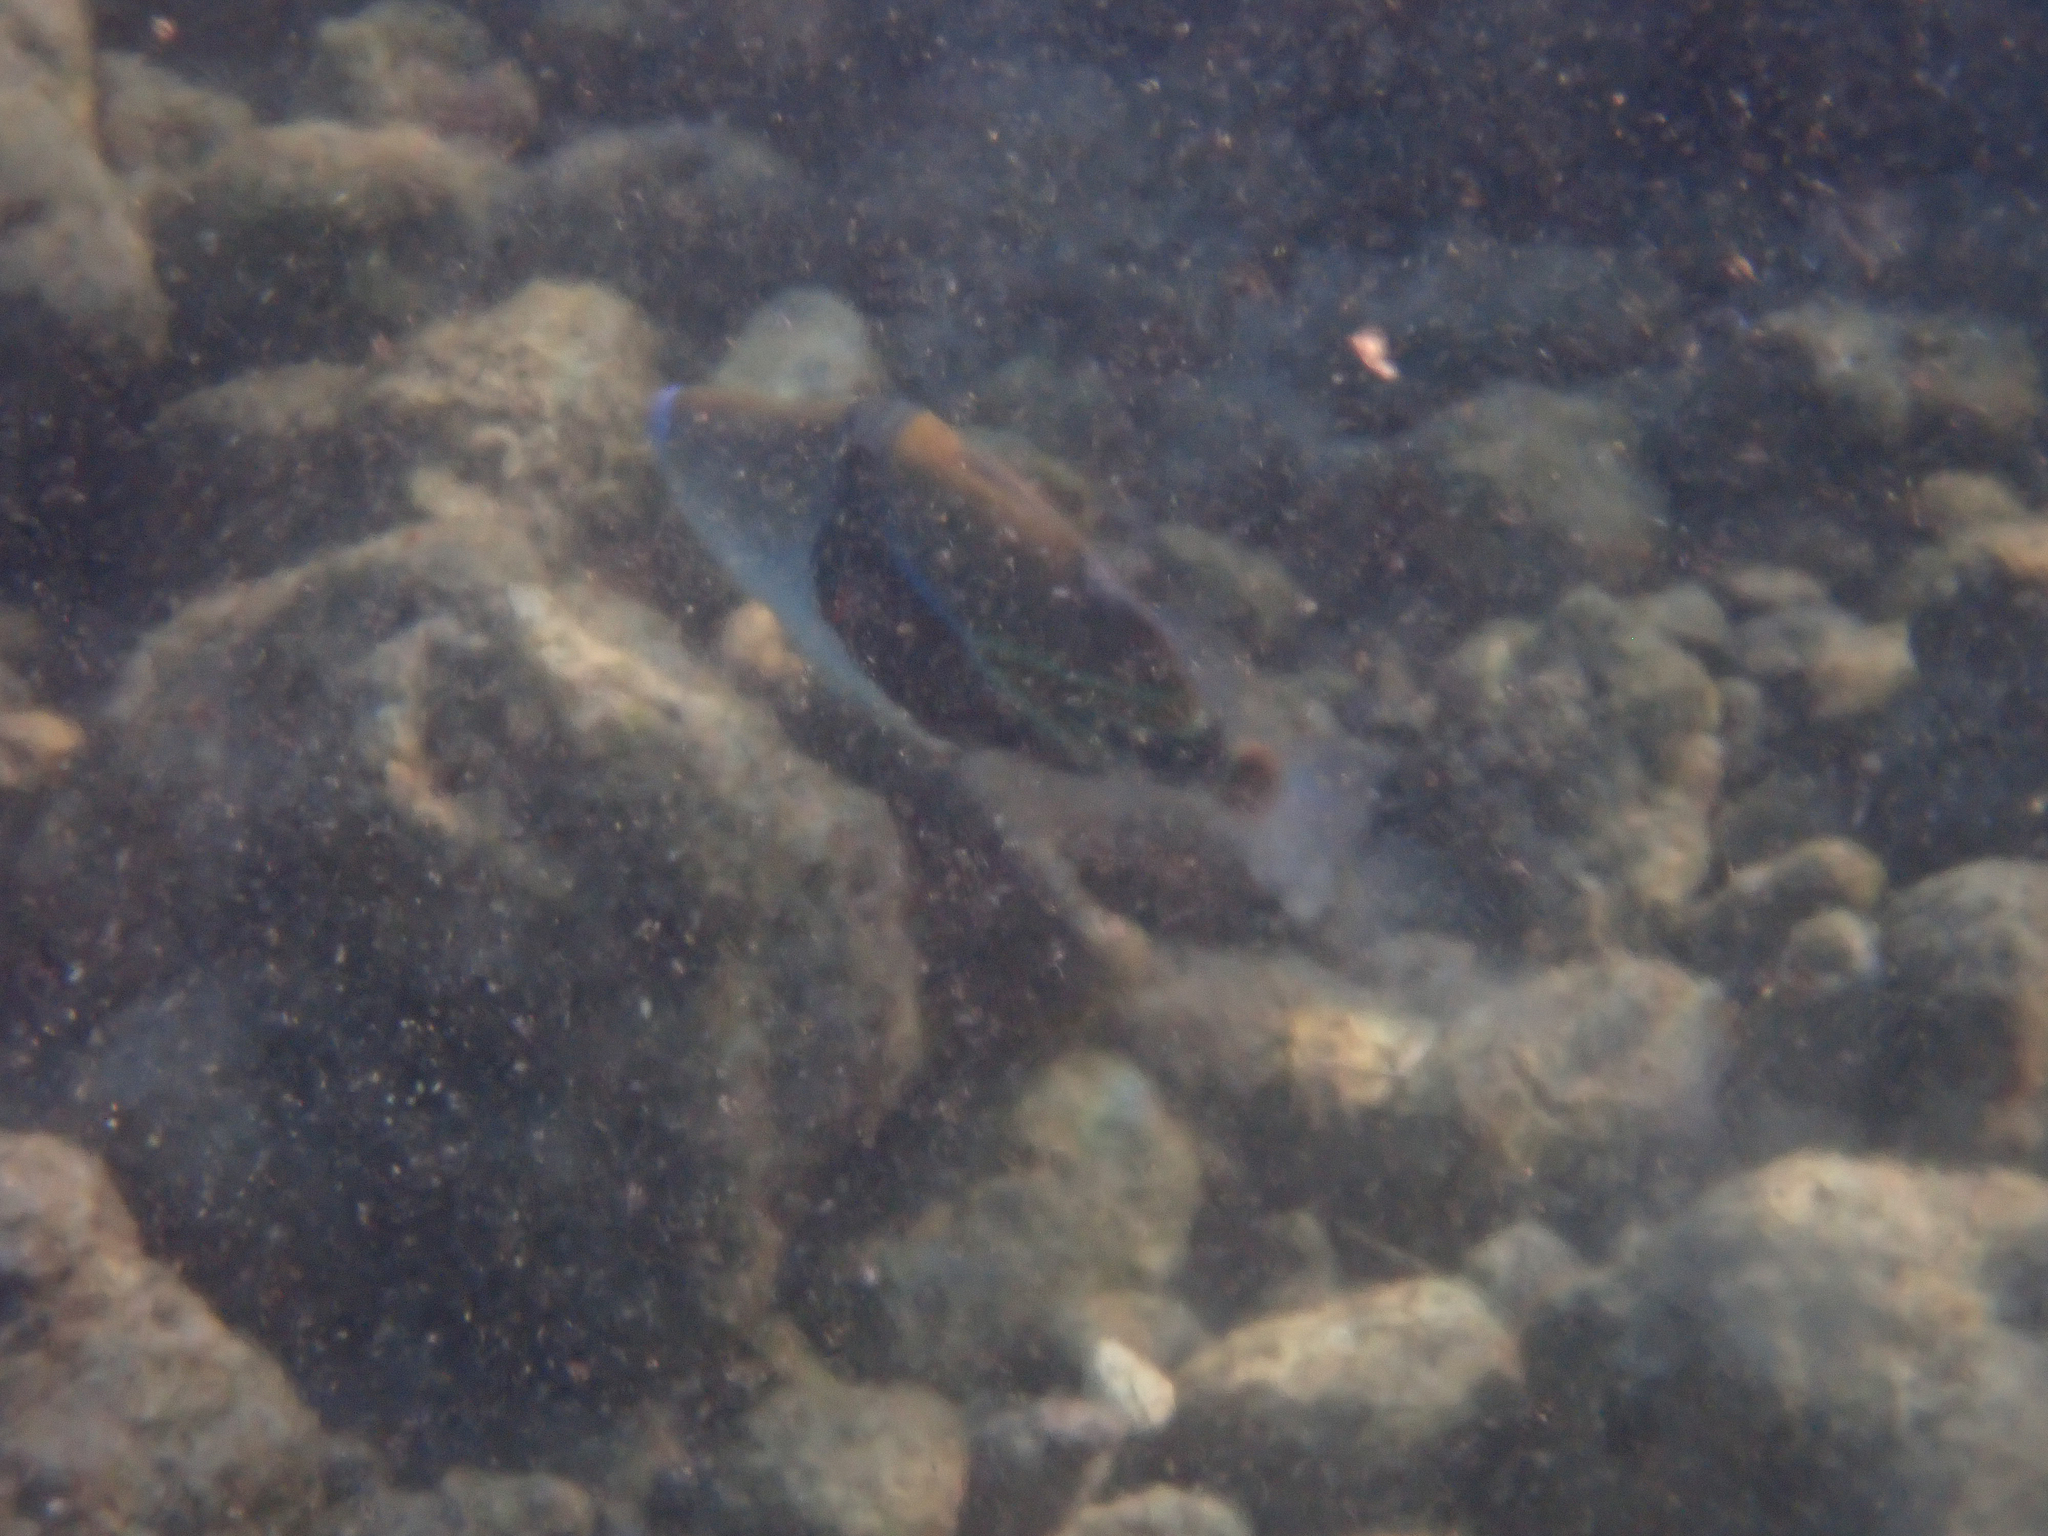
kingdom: Animalia
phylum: Chordata
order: Tetraodontiformes
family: Balistidae
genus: Rhinecanthus
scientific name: Rhinecanthus rectangulus
